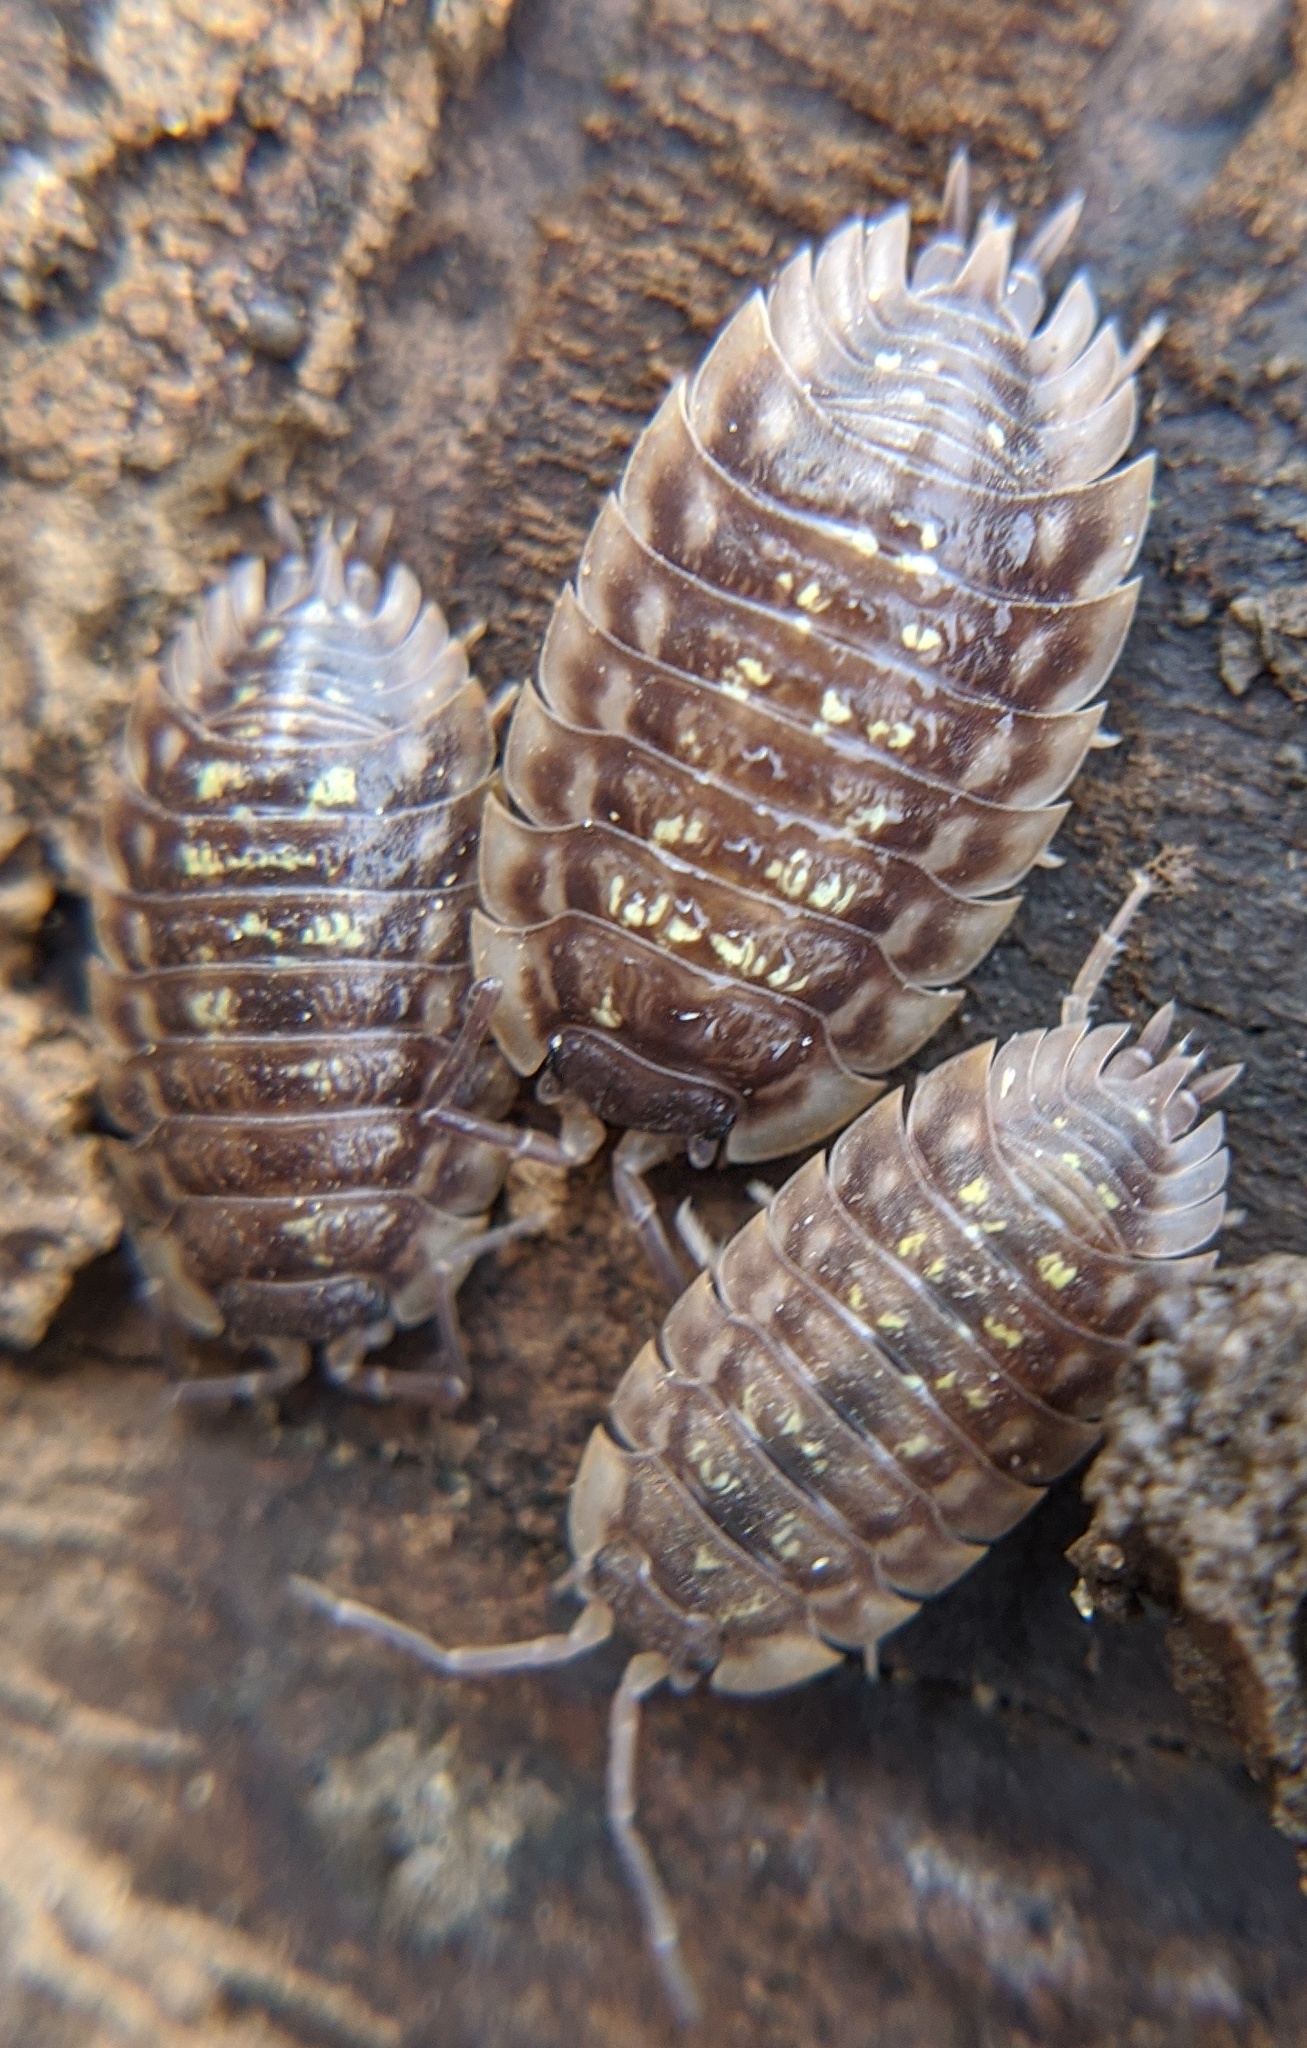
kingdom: Animalia
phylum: Arthropoda
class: Malacostraca
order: Isopoda
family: Oniscidae
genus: Oniscus
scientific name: Oniscus asellus
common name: Common shiny woodlouse
